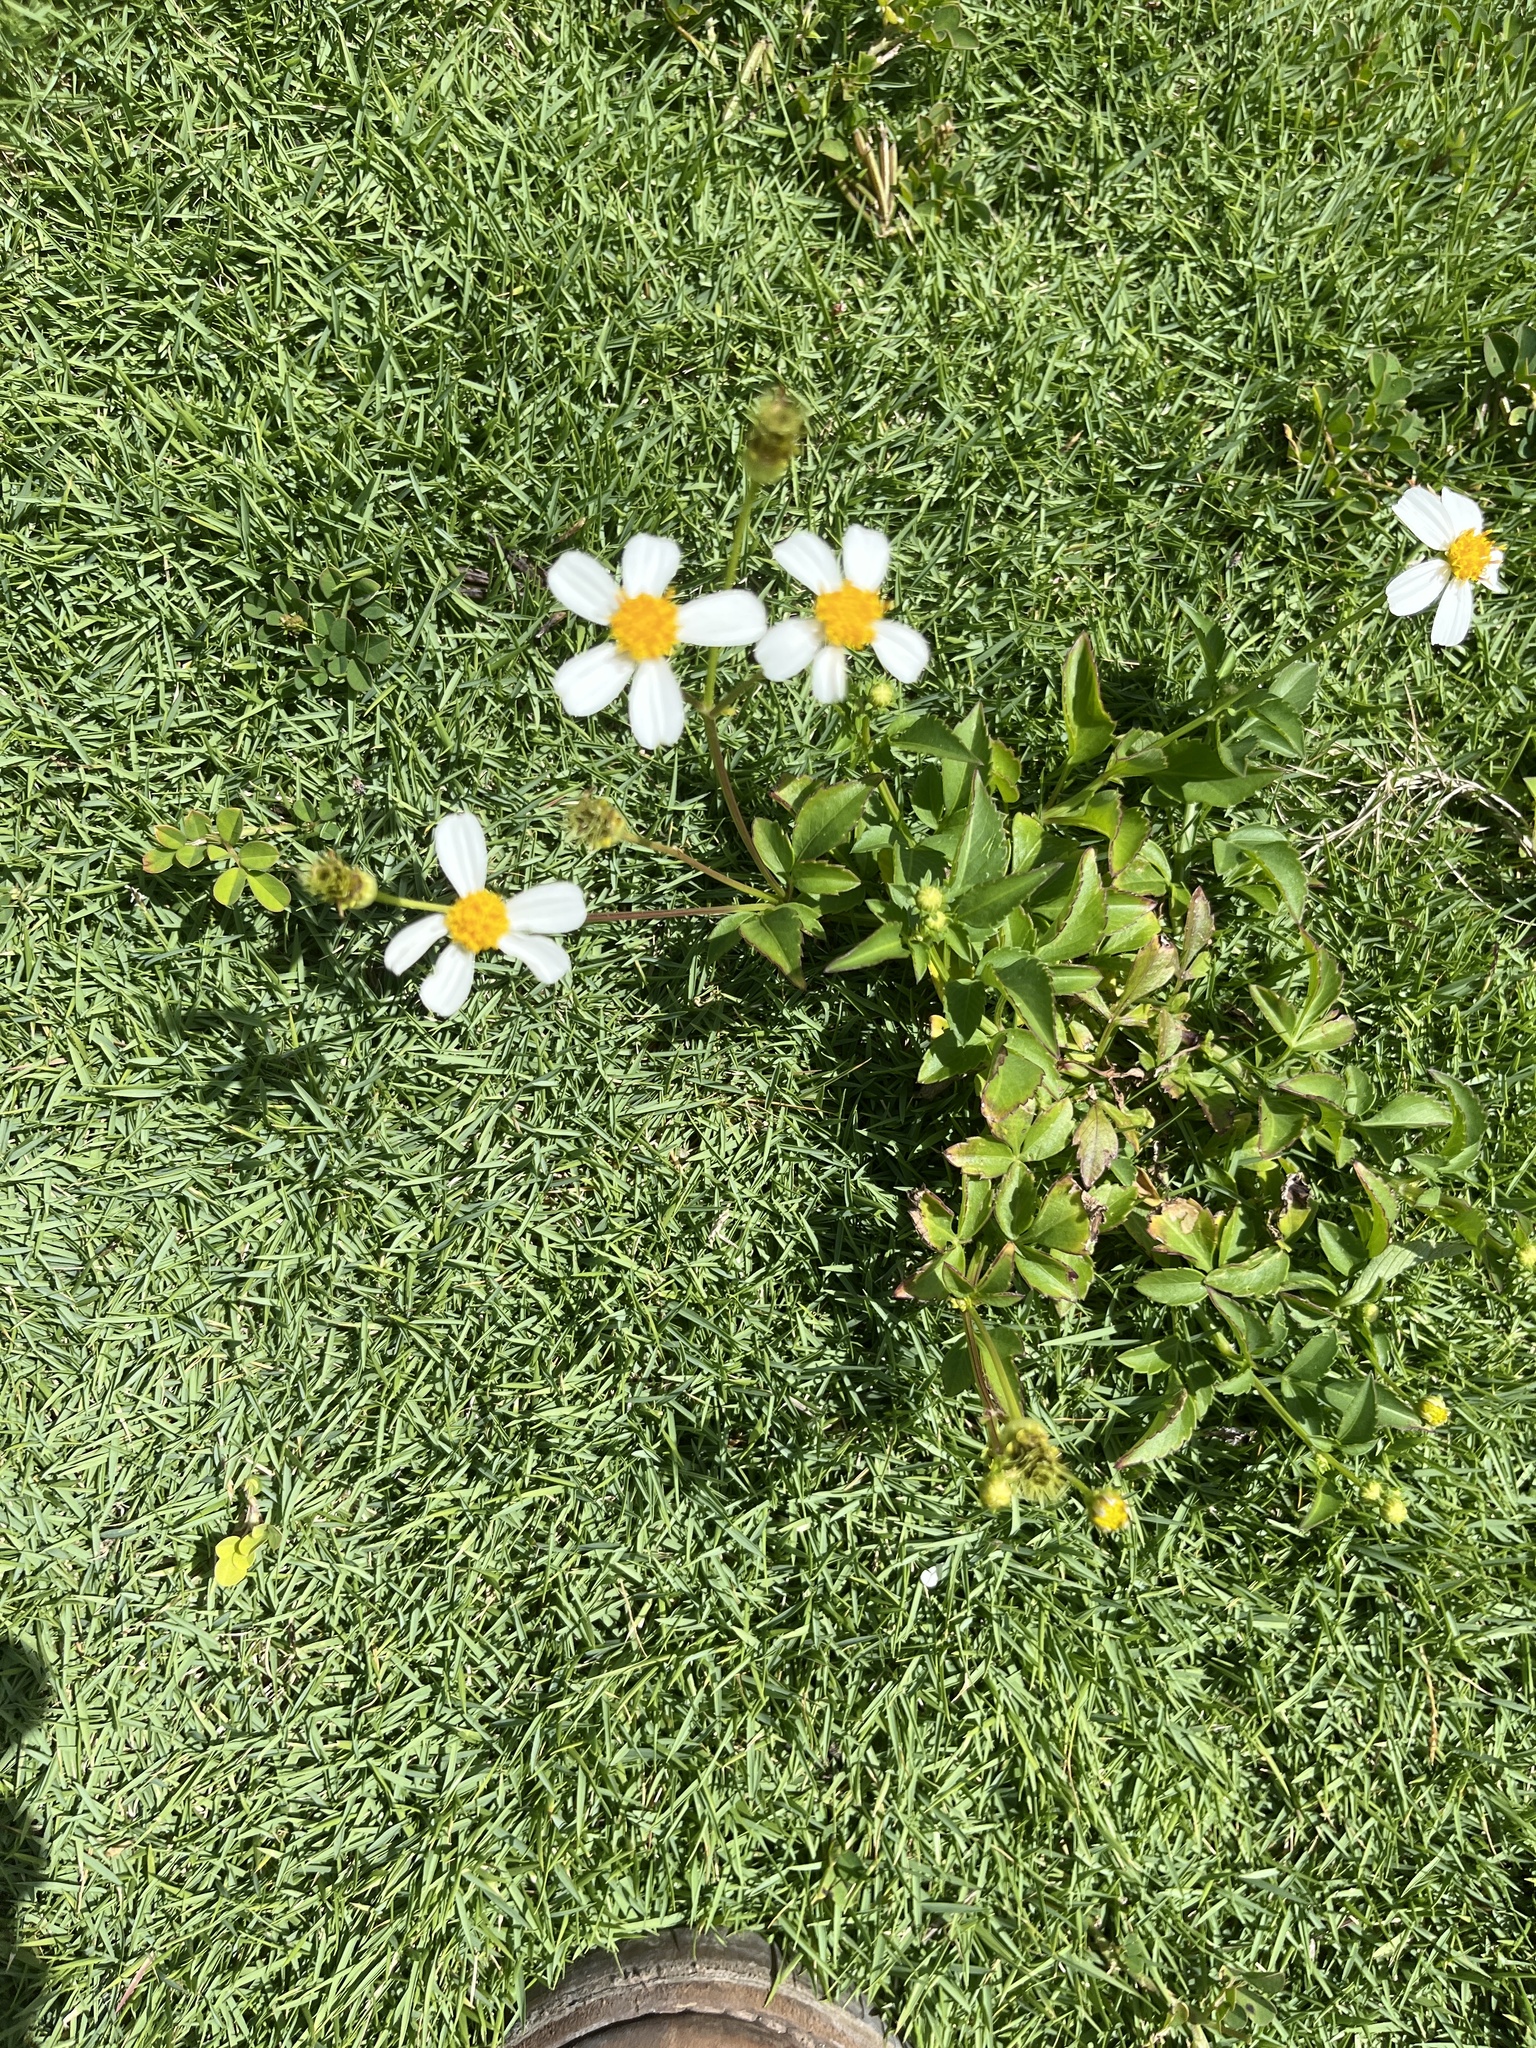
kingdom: Plantae
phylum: Tracheophyta
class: Magnoliopsida
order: Asterales
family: Asteraceae
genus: Bidens
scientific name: Bidens alba
